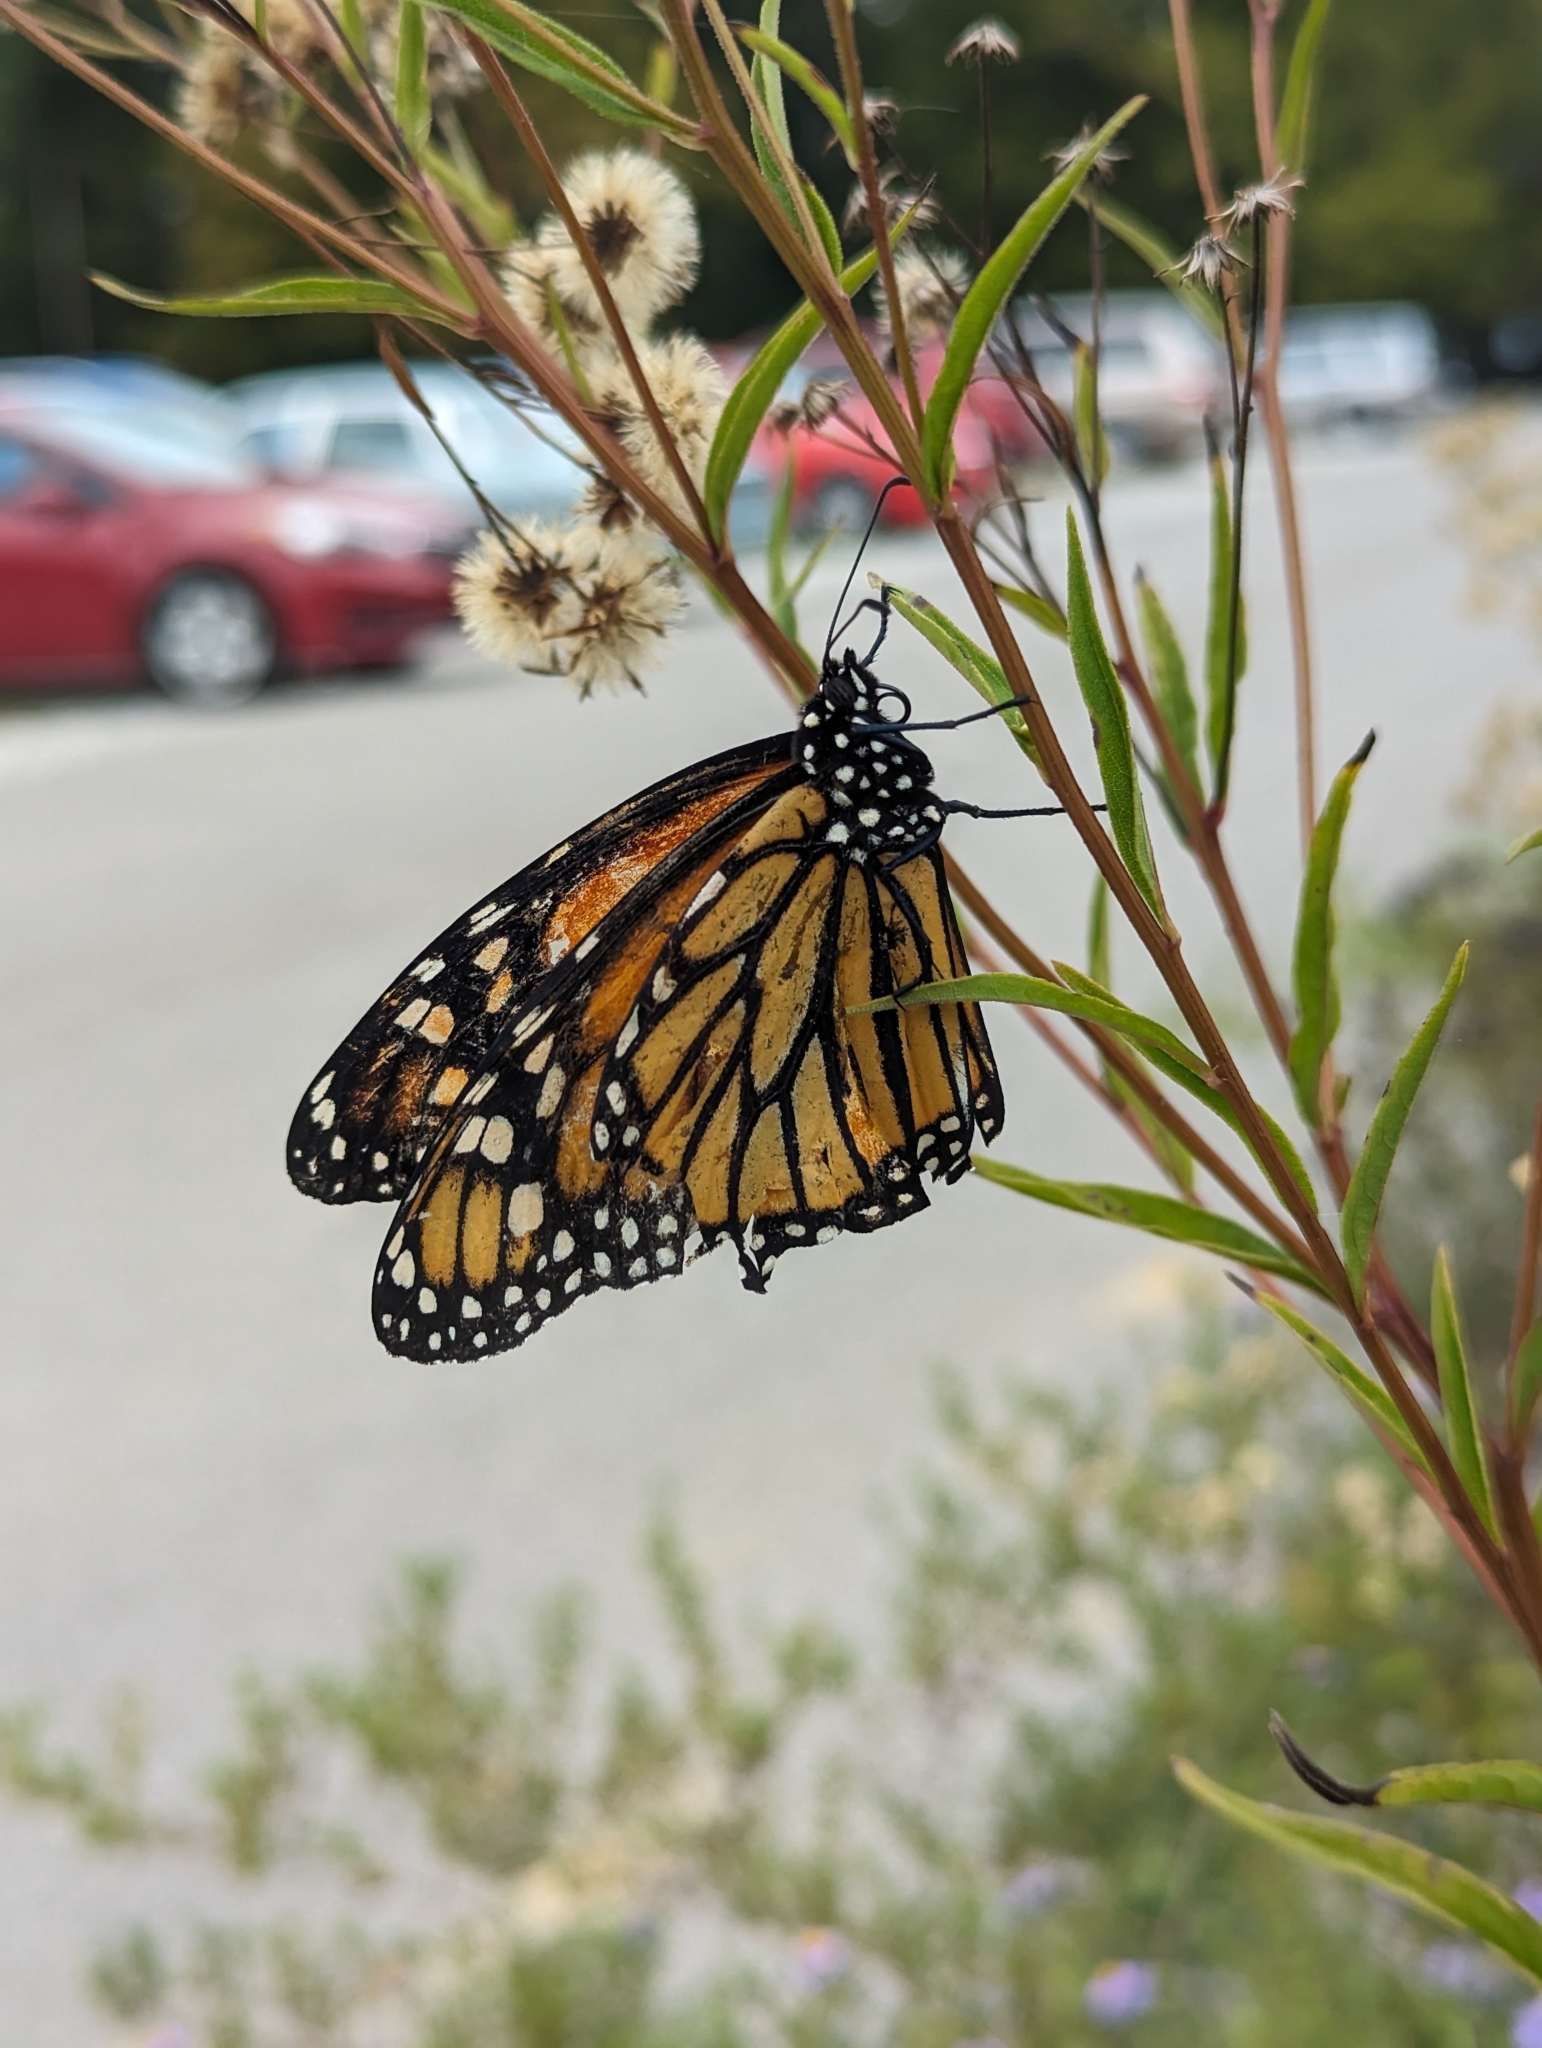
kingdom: Animalia
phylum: Arthropoda
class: Insecta
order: Lepidoptera
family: Nymphalidae
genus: Danaus
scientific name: Danaus plexippus
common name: Monarch
